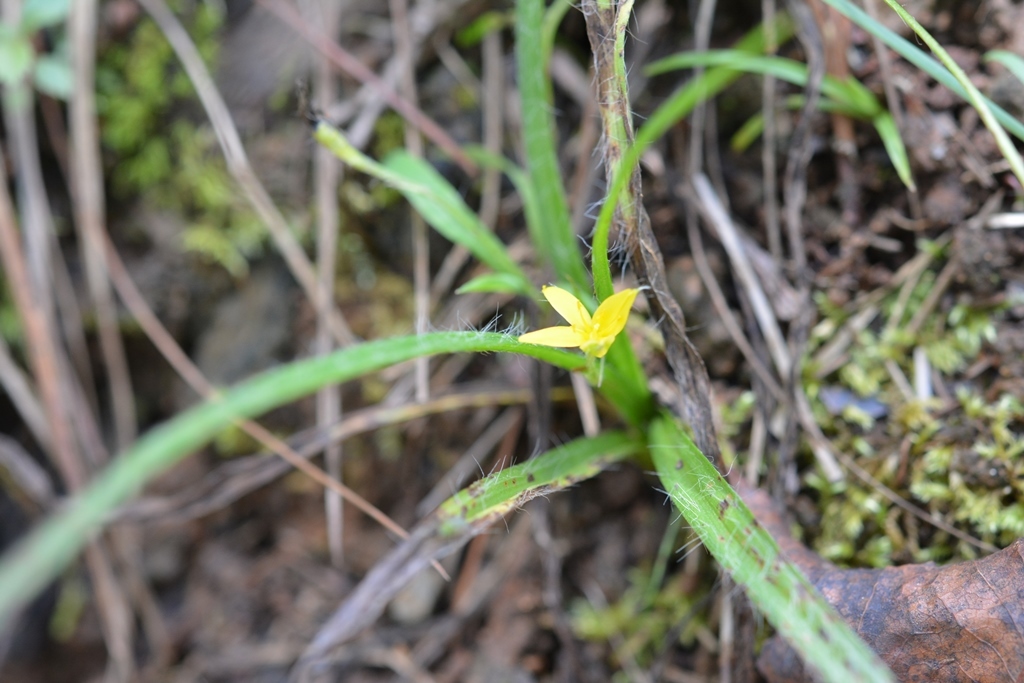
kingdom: Plantae
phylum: Tracheophyta
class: Liliopsida
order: Asparagales
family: Hypoxidaceae
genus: Hypoxis
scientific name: Hypoxis decumbens
